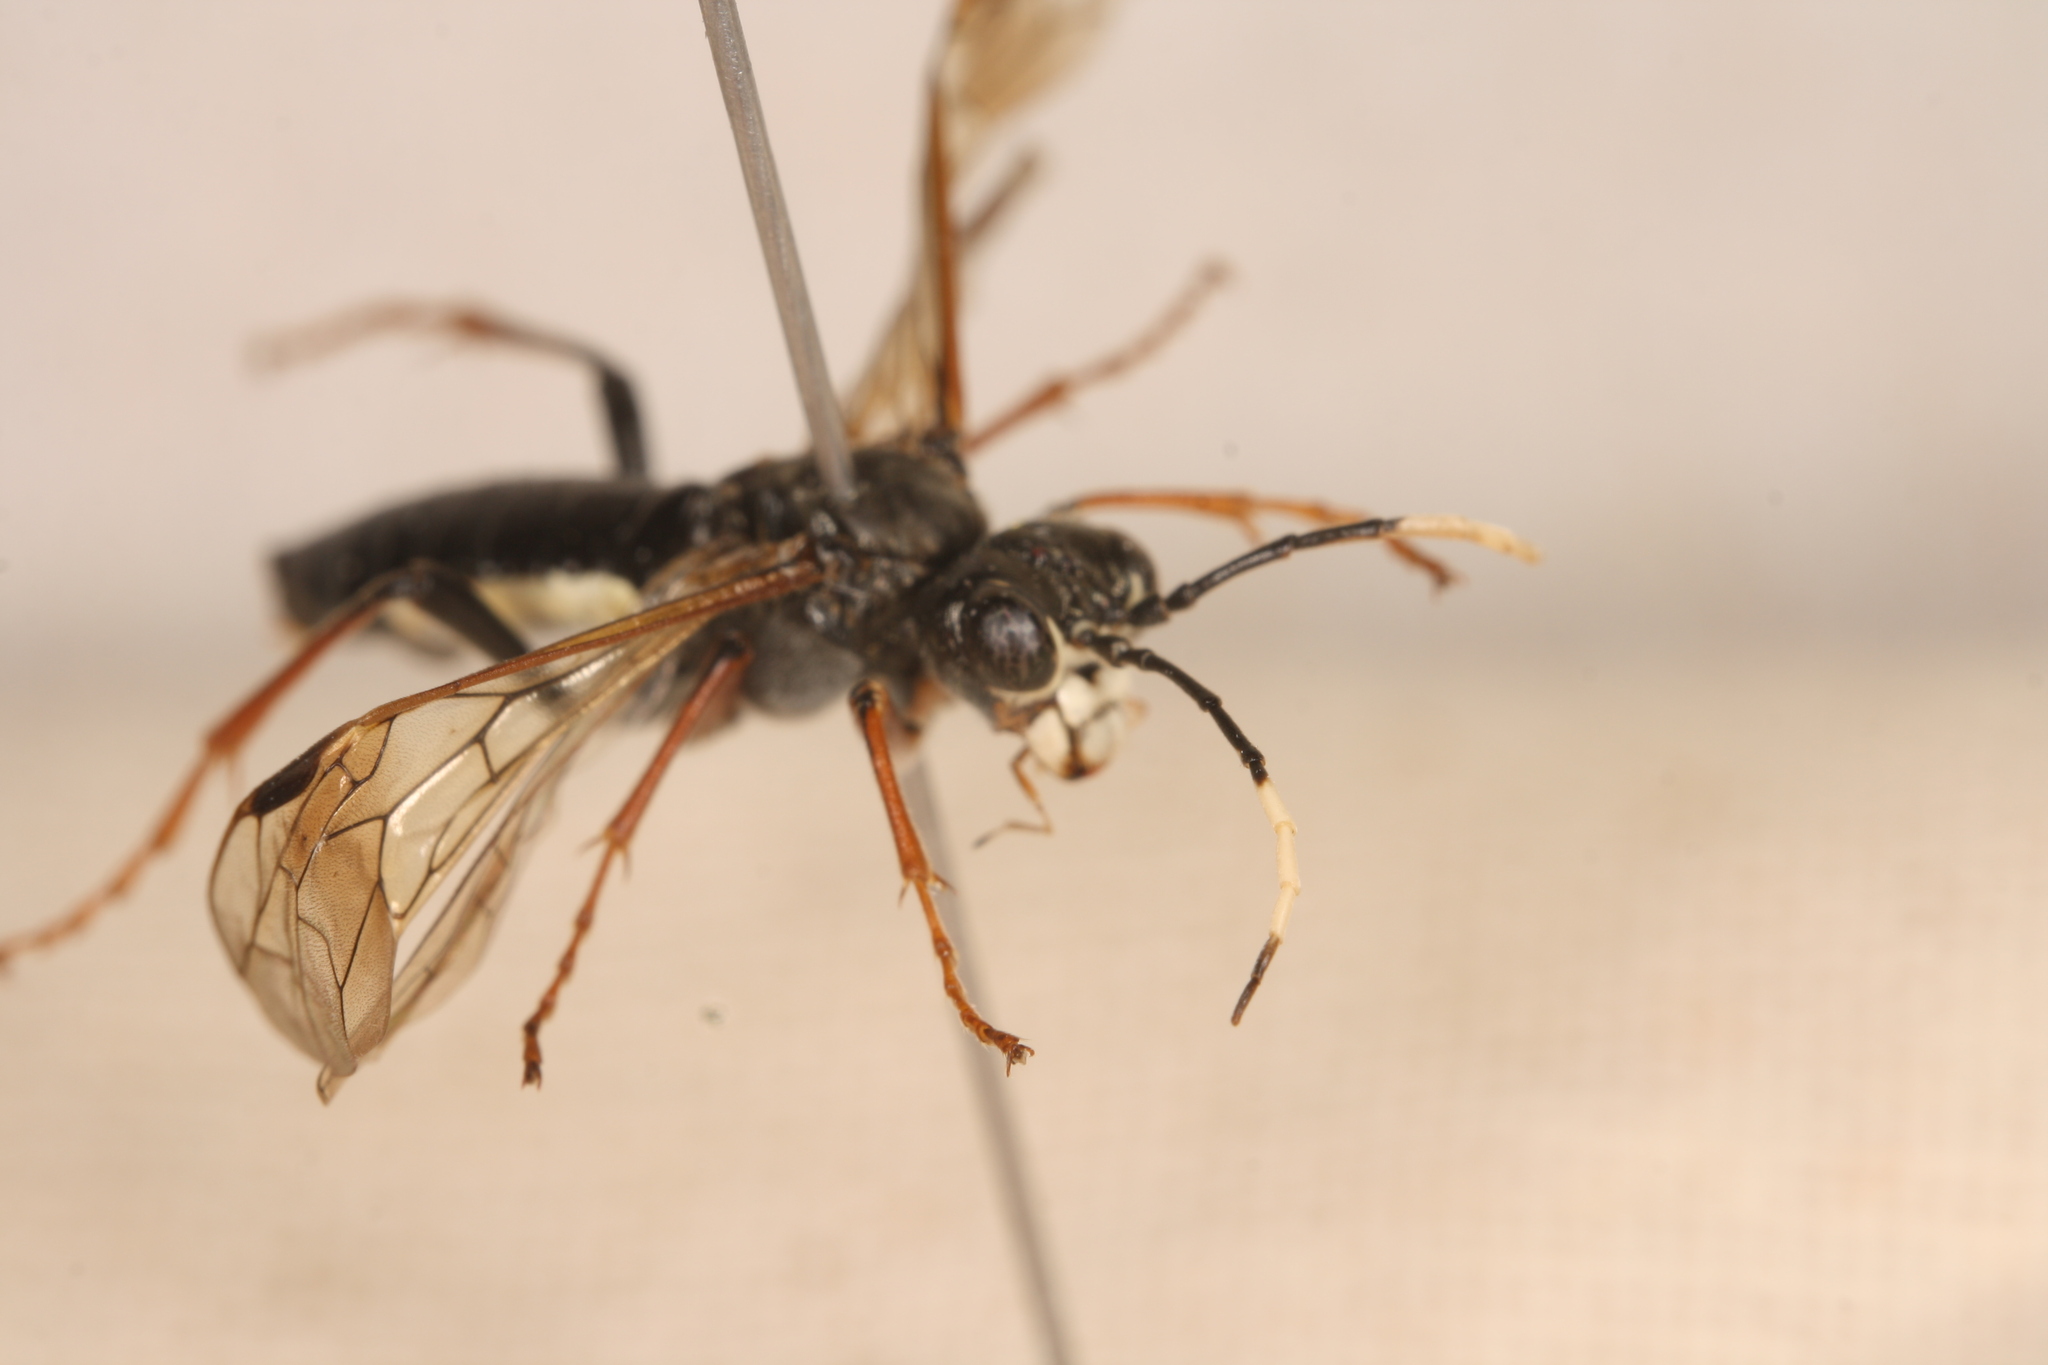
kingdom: Animalia
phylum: Arthropoda
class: Insecta
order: Hymenoptera
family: Tenthredinidae
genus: Tenthredo
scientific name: Tenthredo silensis
